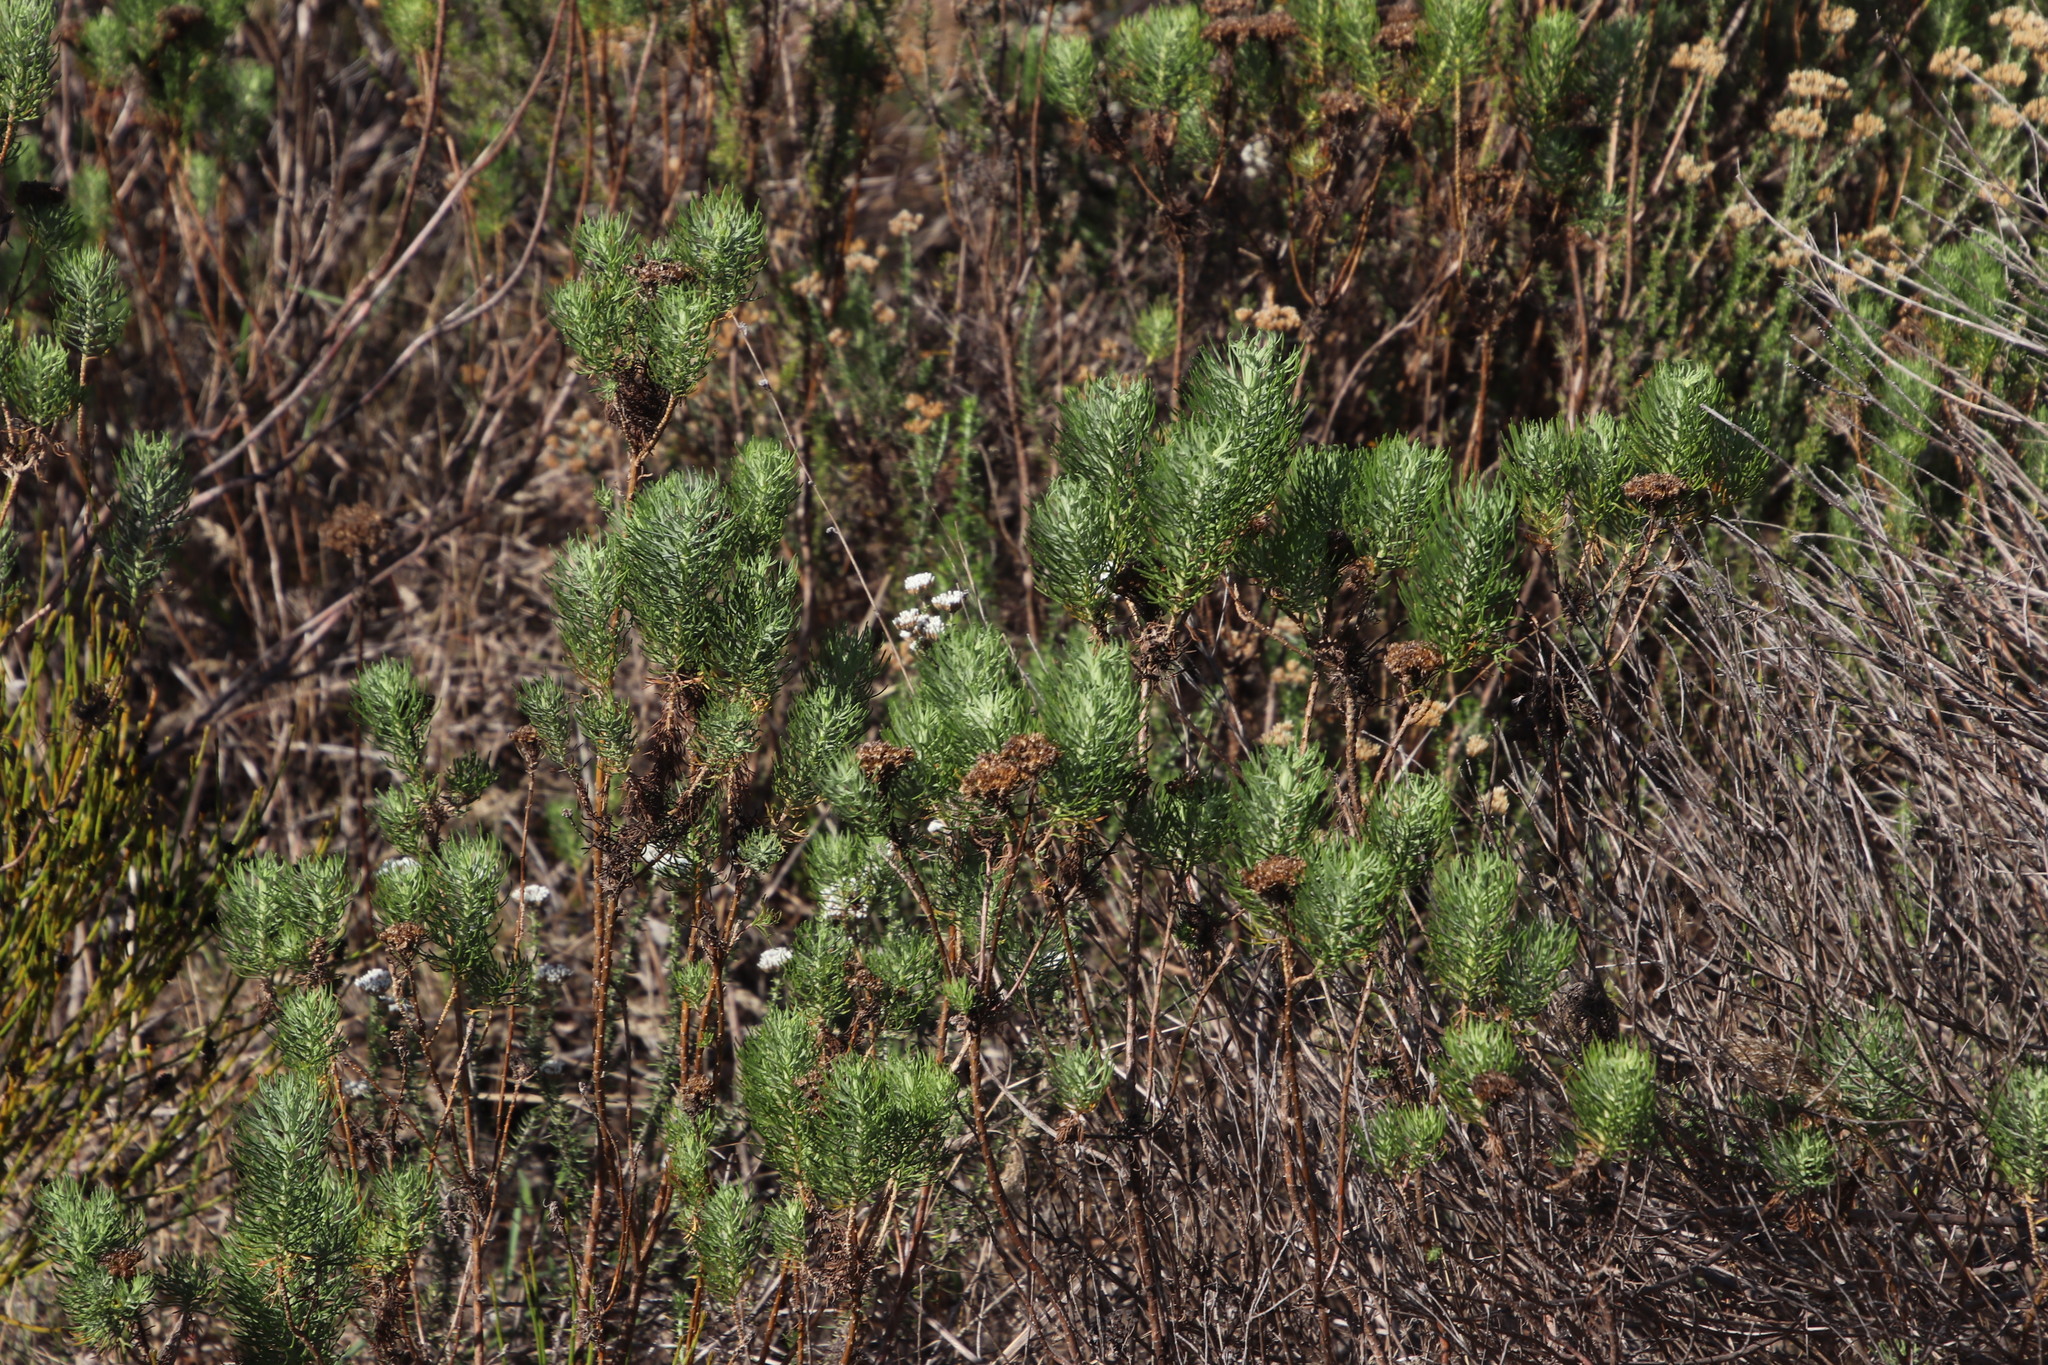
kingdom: Plantae
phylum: Tracheophyta
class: Magnoliopsida
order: Asterales
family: Asteraceae
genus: Athanasia
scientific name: Athanasia crithmifolia
